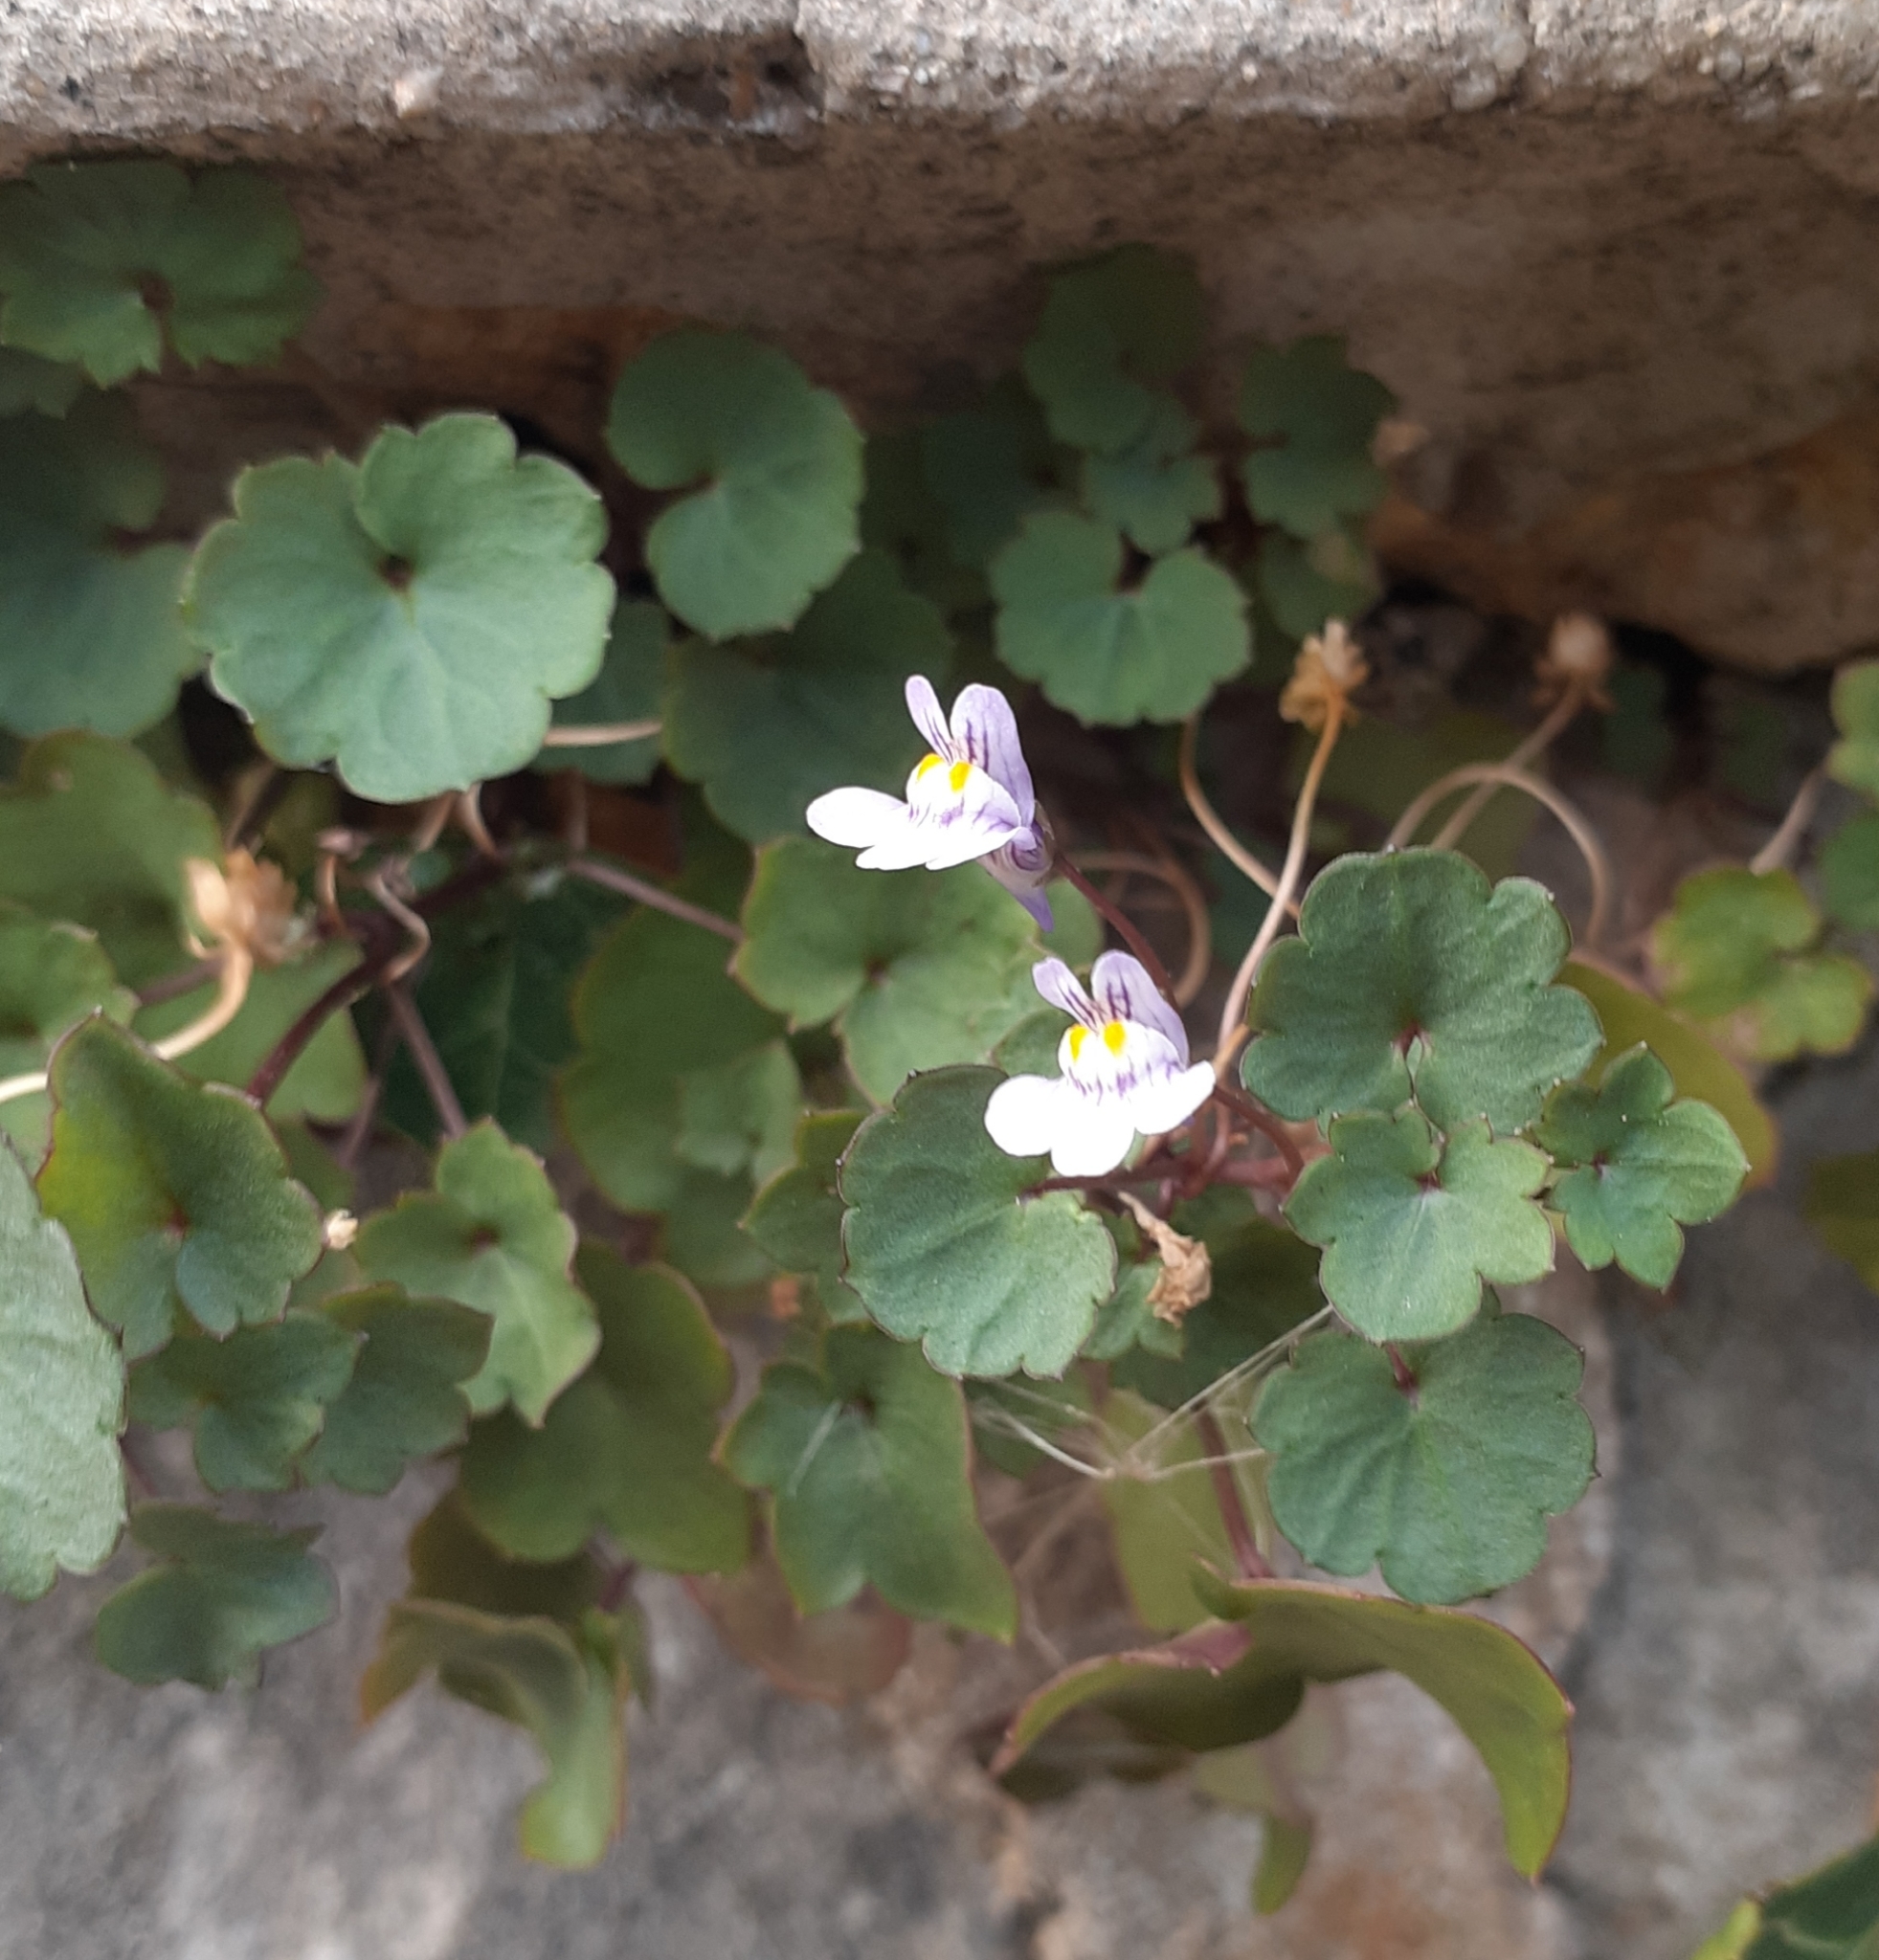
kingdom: Plantae
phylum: Tracheophyta
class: Magnoliopsida
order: Lamiales
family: Plantaginaceae
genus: Cymbalaria
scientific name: Cymbalaria muralis
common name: Ivy-leaved toadflax
